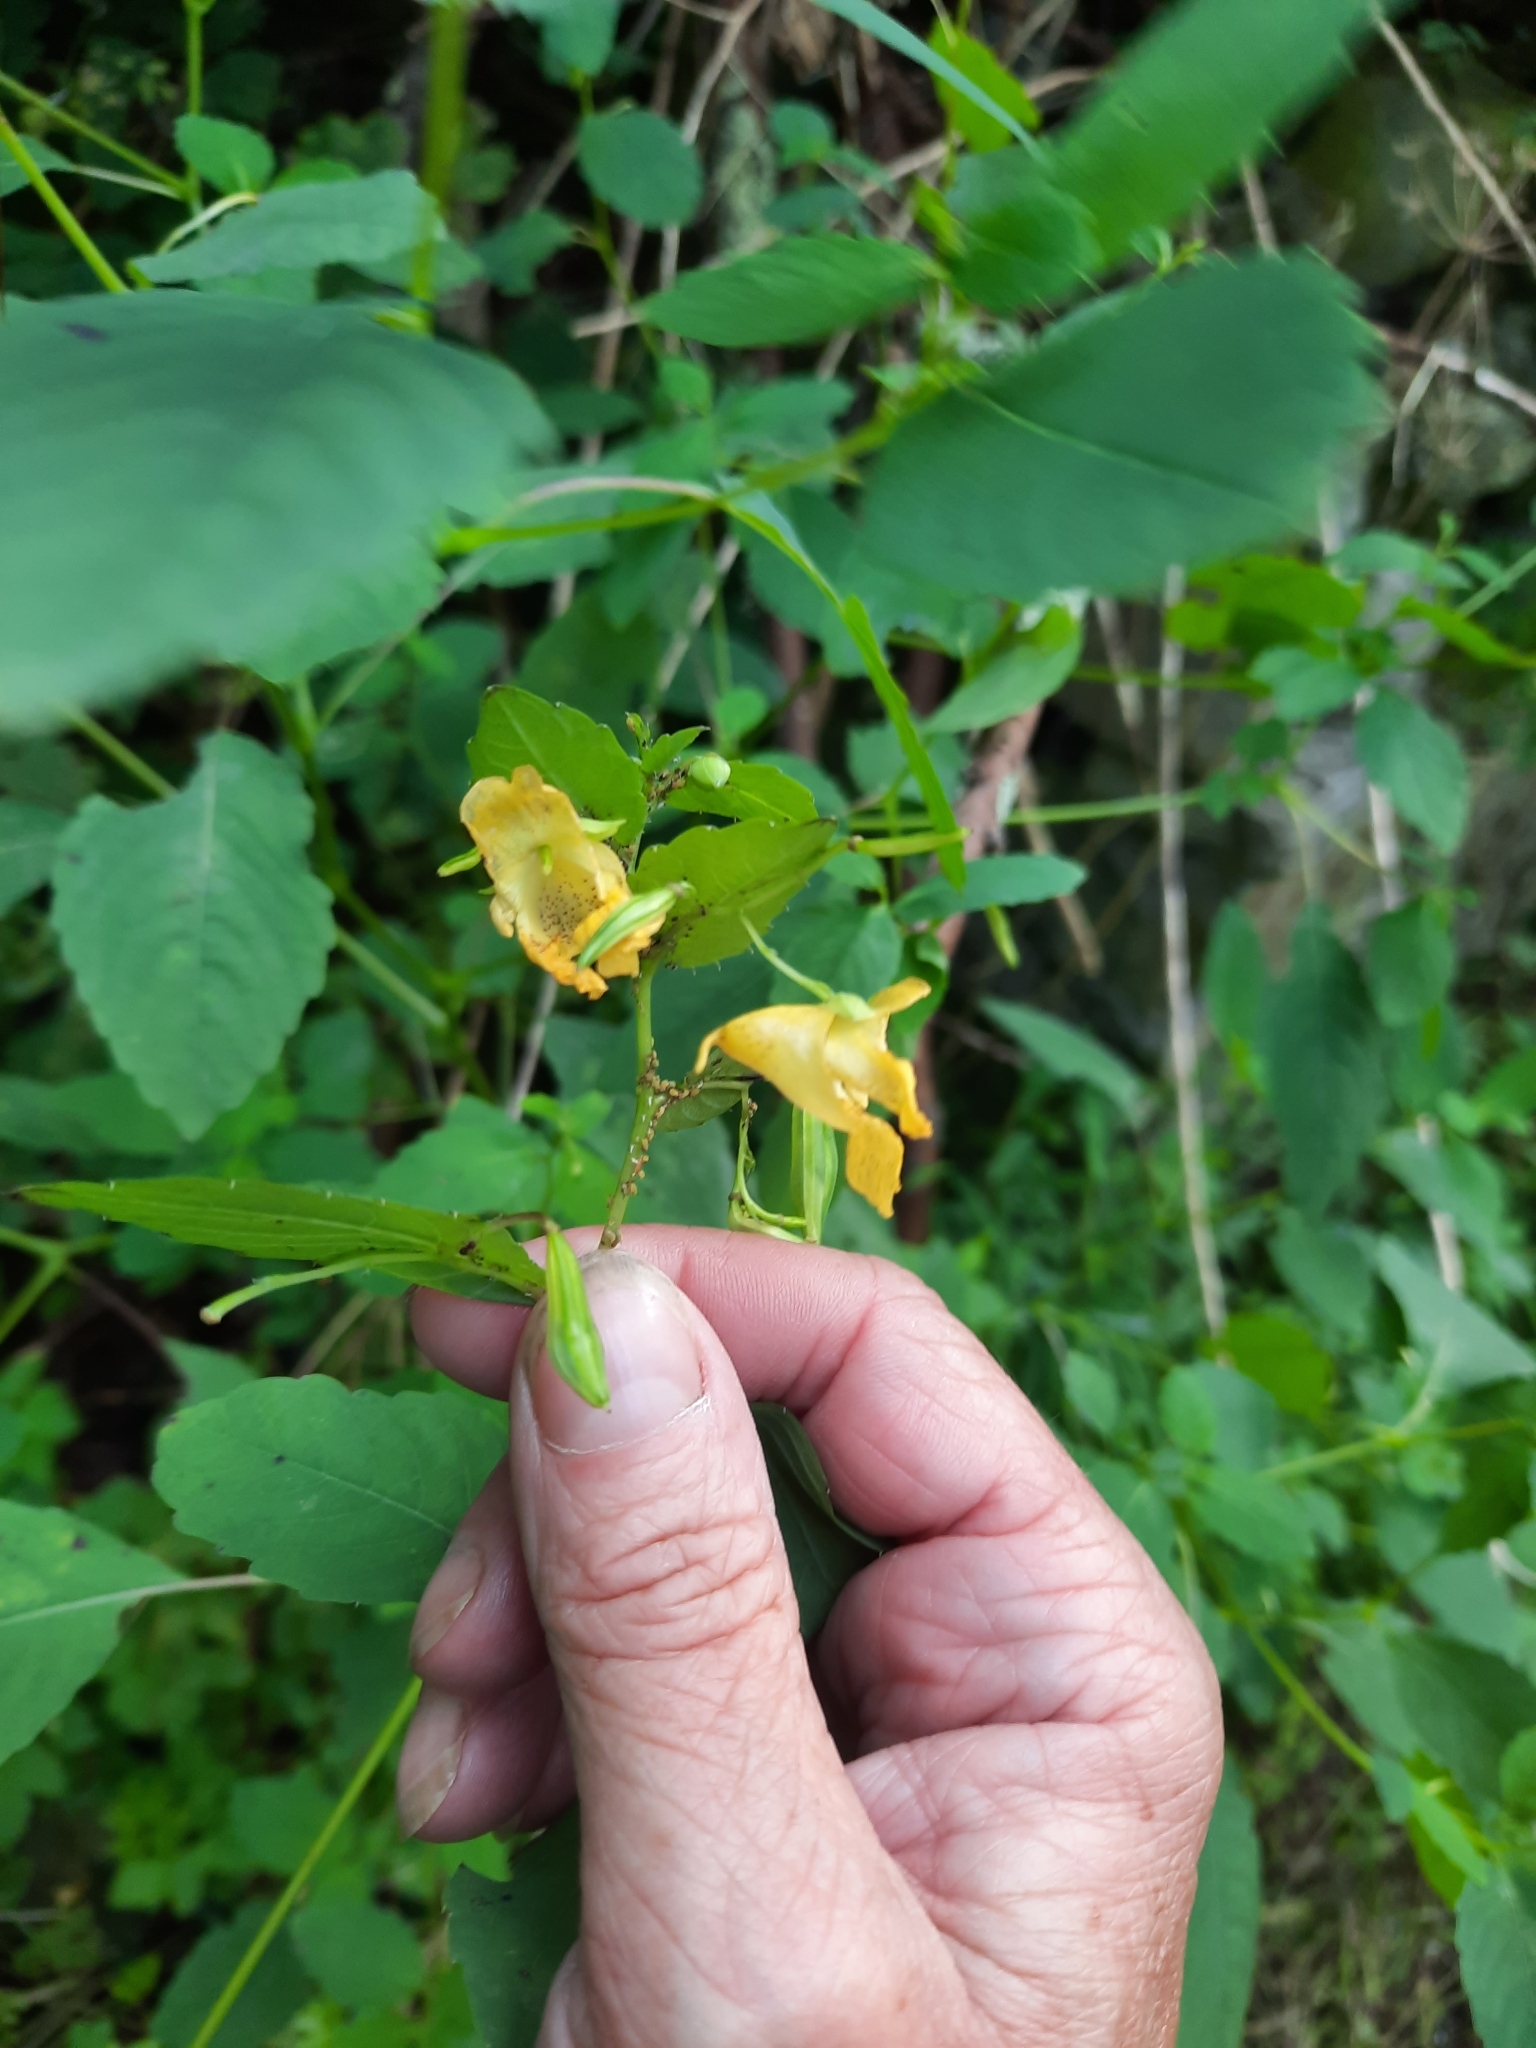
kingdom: Plantae
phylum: Tracheophyta
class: Magnoliopsida
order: Ericales
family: Balsaminaceae
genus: Impatiens
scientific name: Impatiens pallida
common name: Pale snapweed
